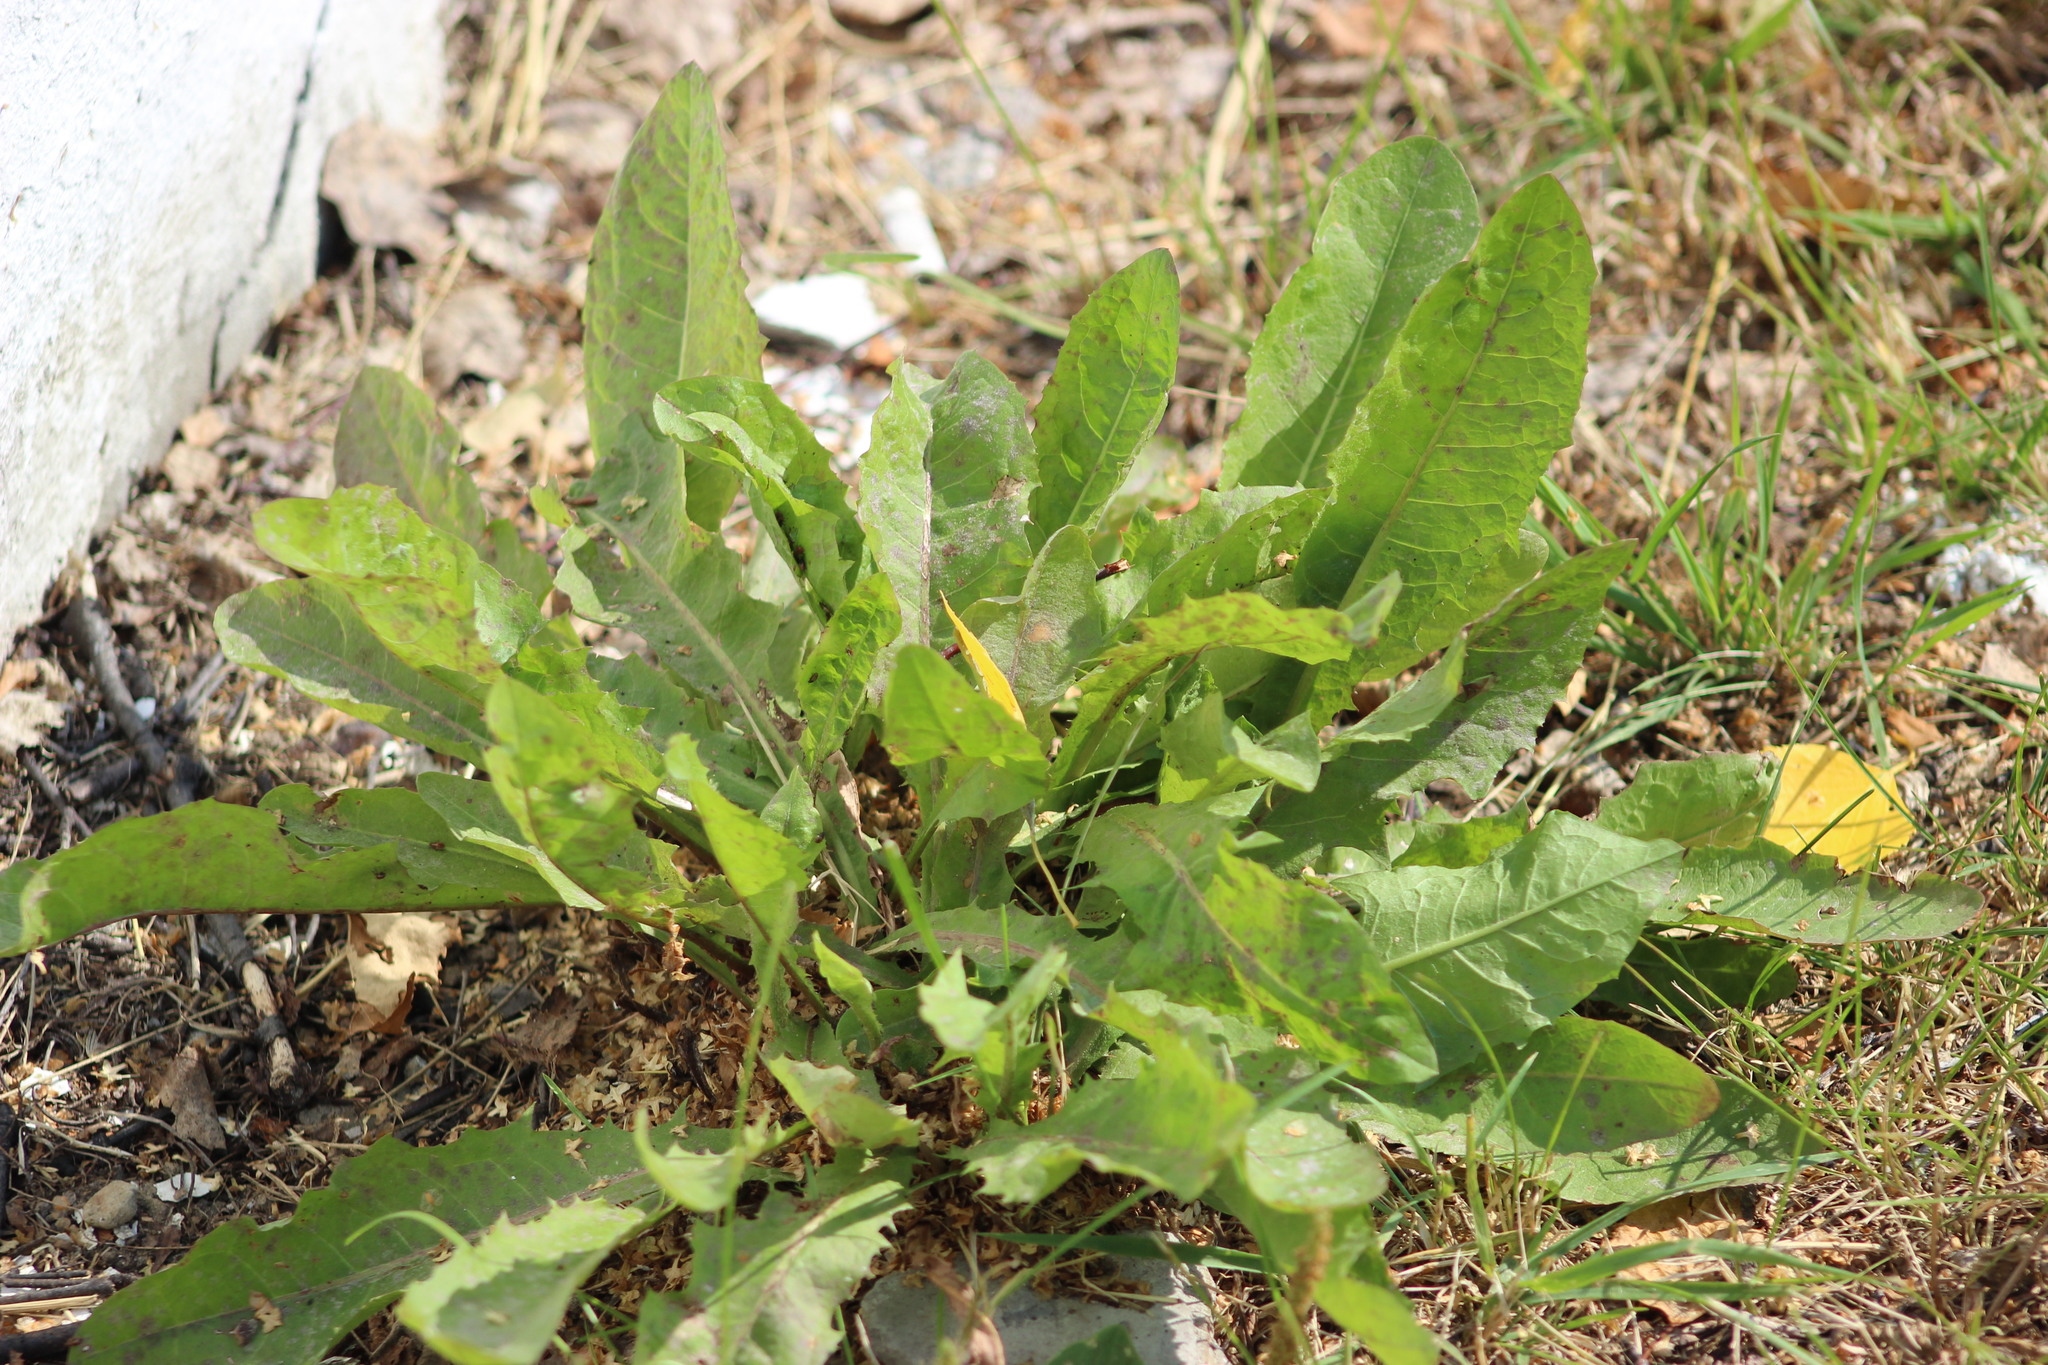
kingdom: Plantae
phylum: Tracheophyta
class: Magnoliopsida
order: Asterales
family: Asteraceae
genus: Taraxacum
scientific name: Taraxacum officinale
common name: Common dandelion
